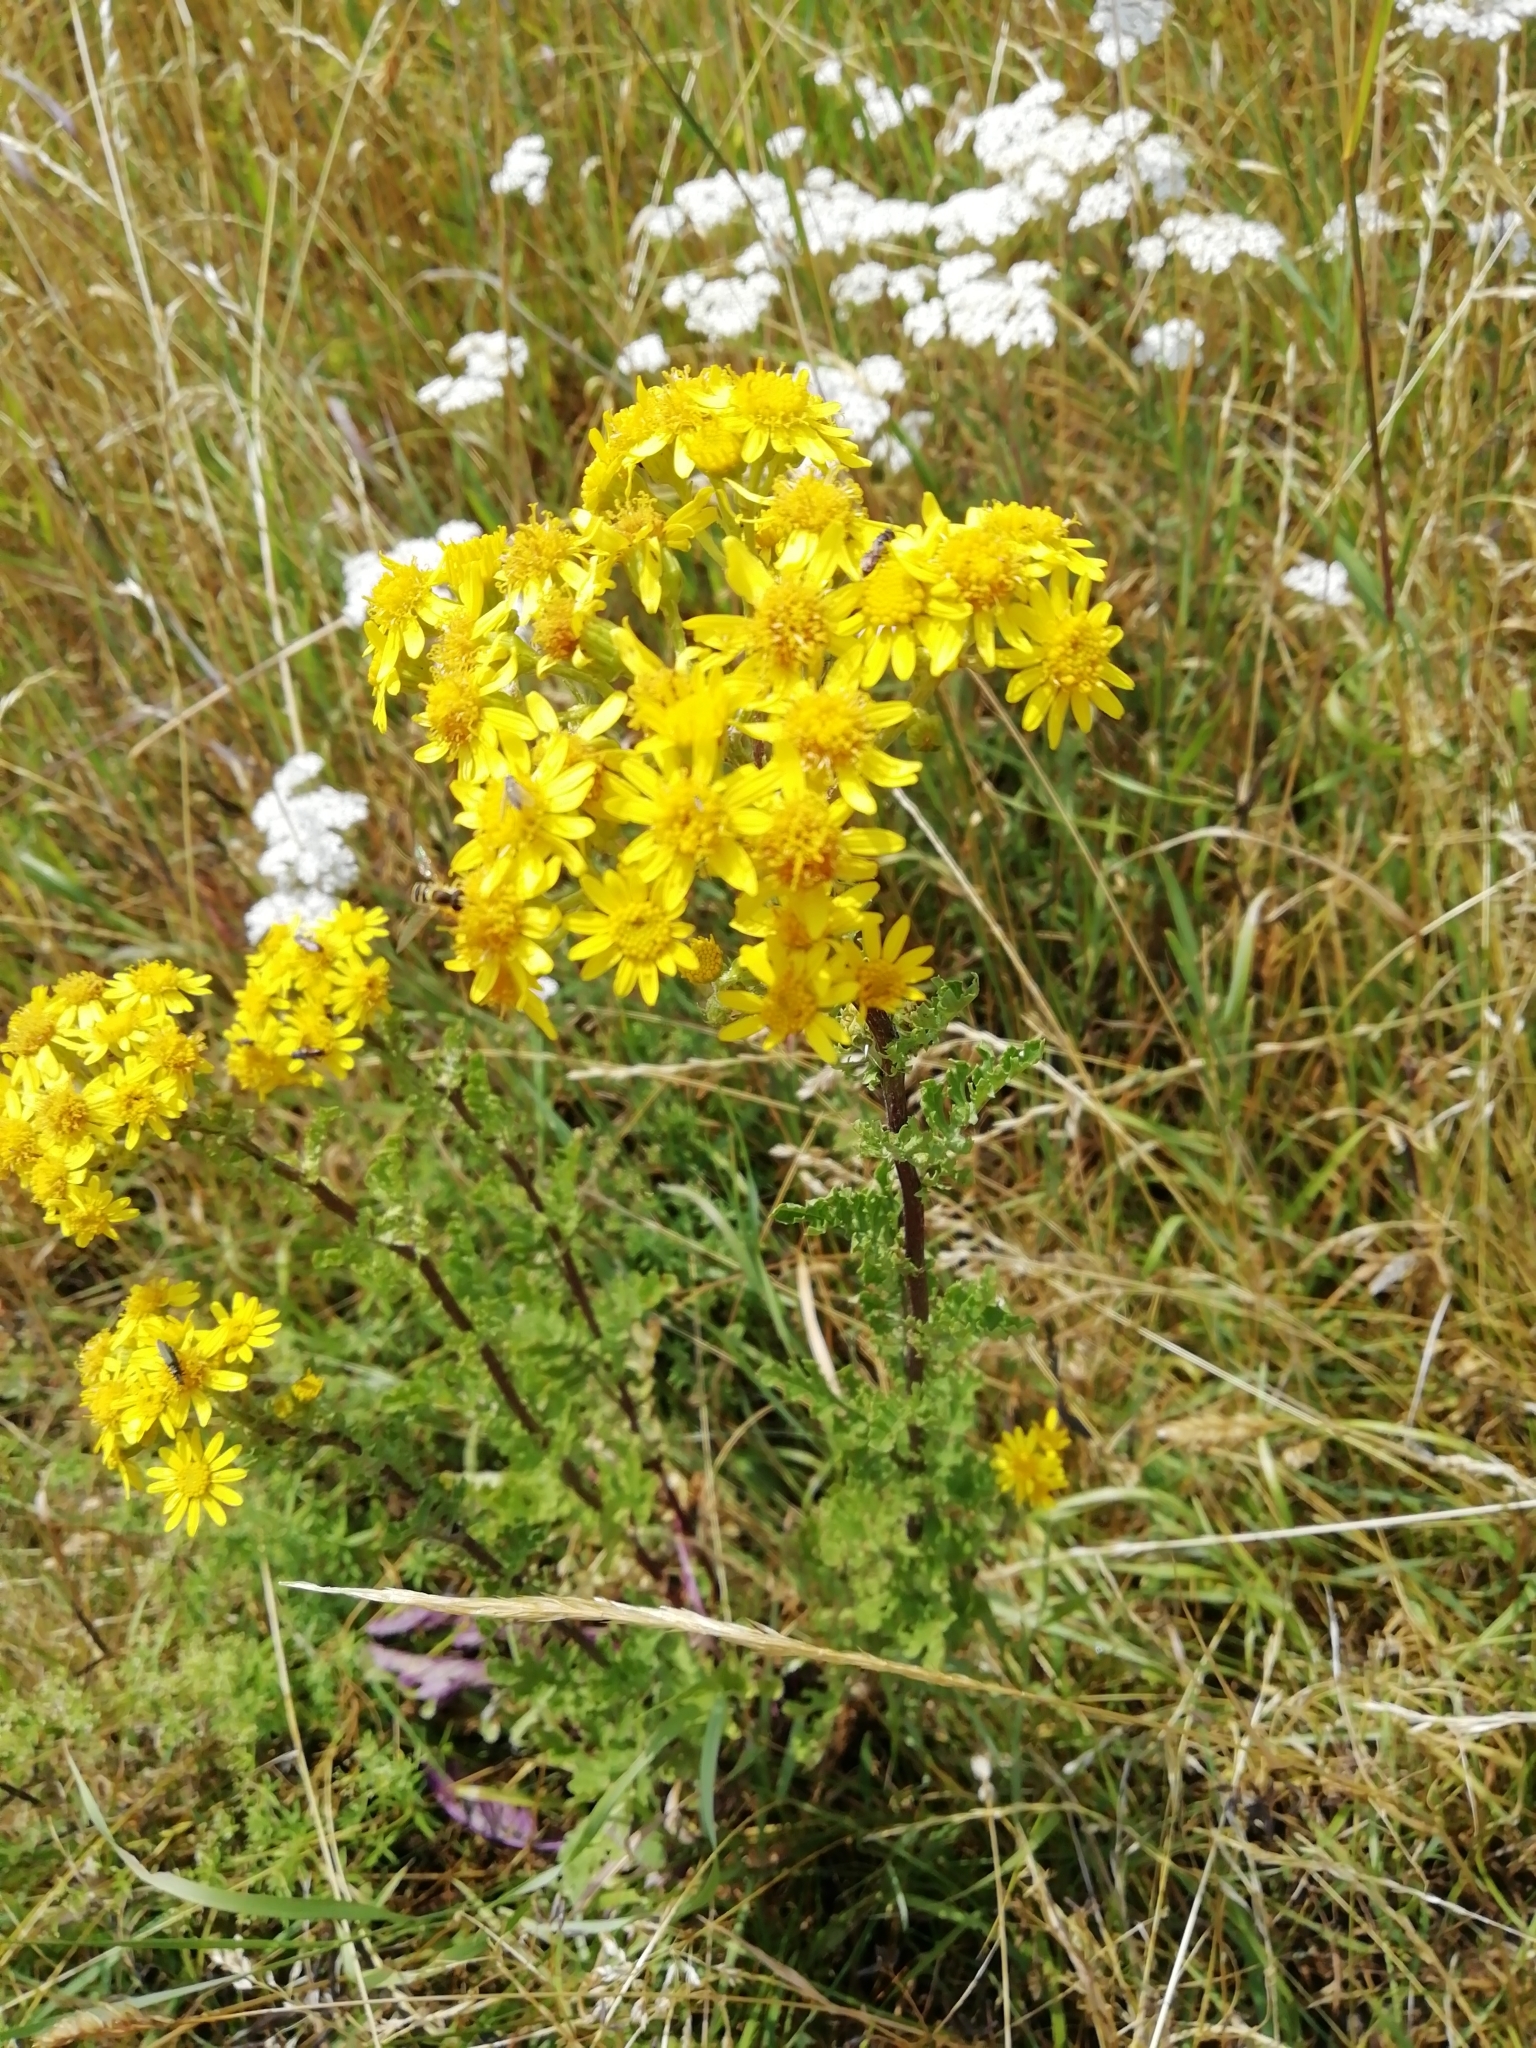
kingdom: Plantae
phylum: Tracheophyta
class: Magnoliopsida
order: Asterales
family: Asteraceae
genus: Jacobaea
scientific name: Jacobaea vulgaris
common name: Stinking willie
